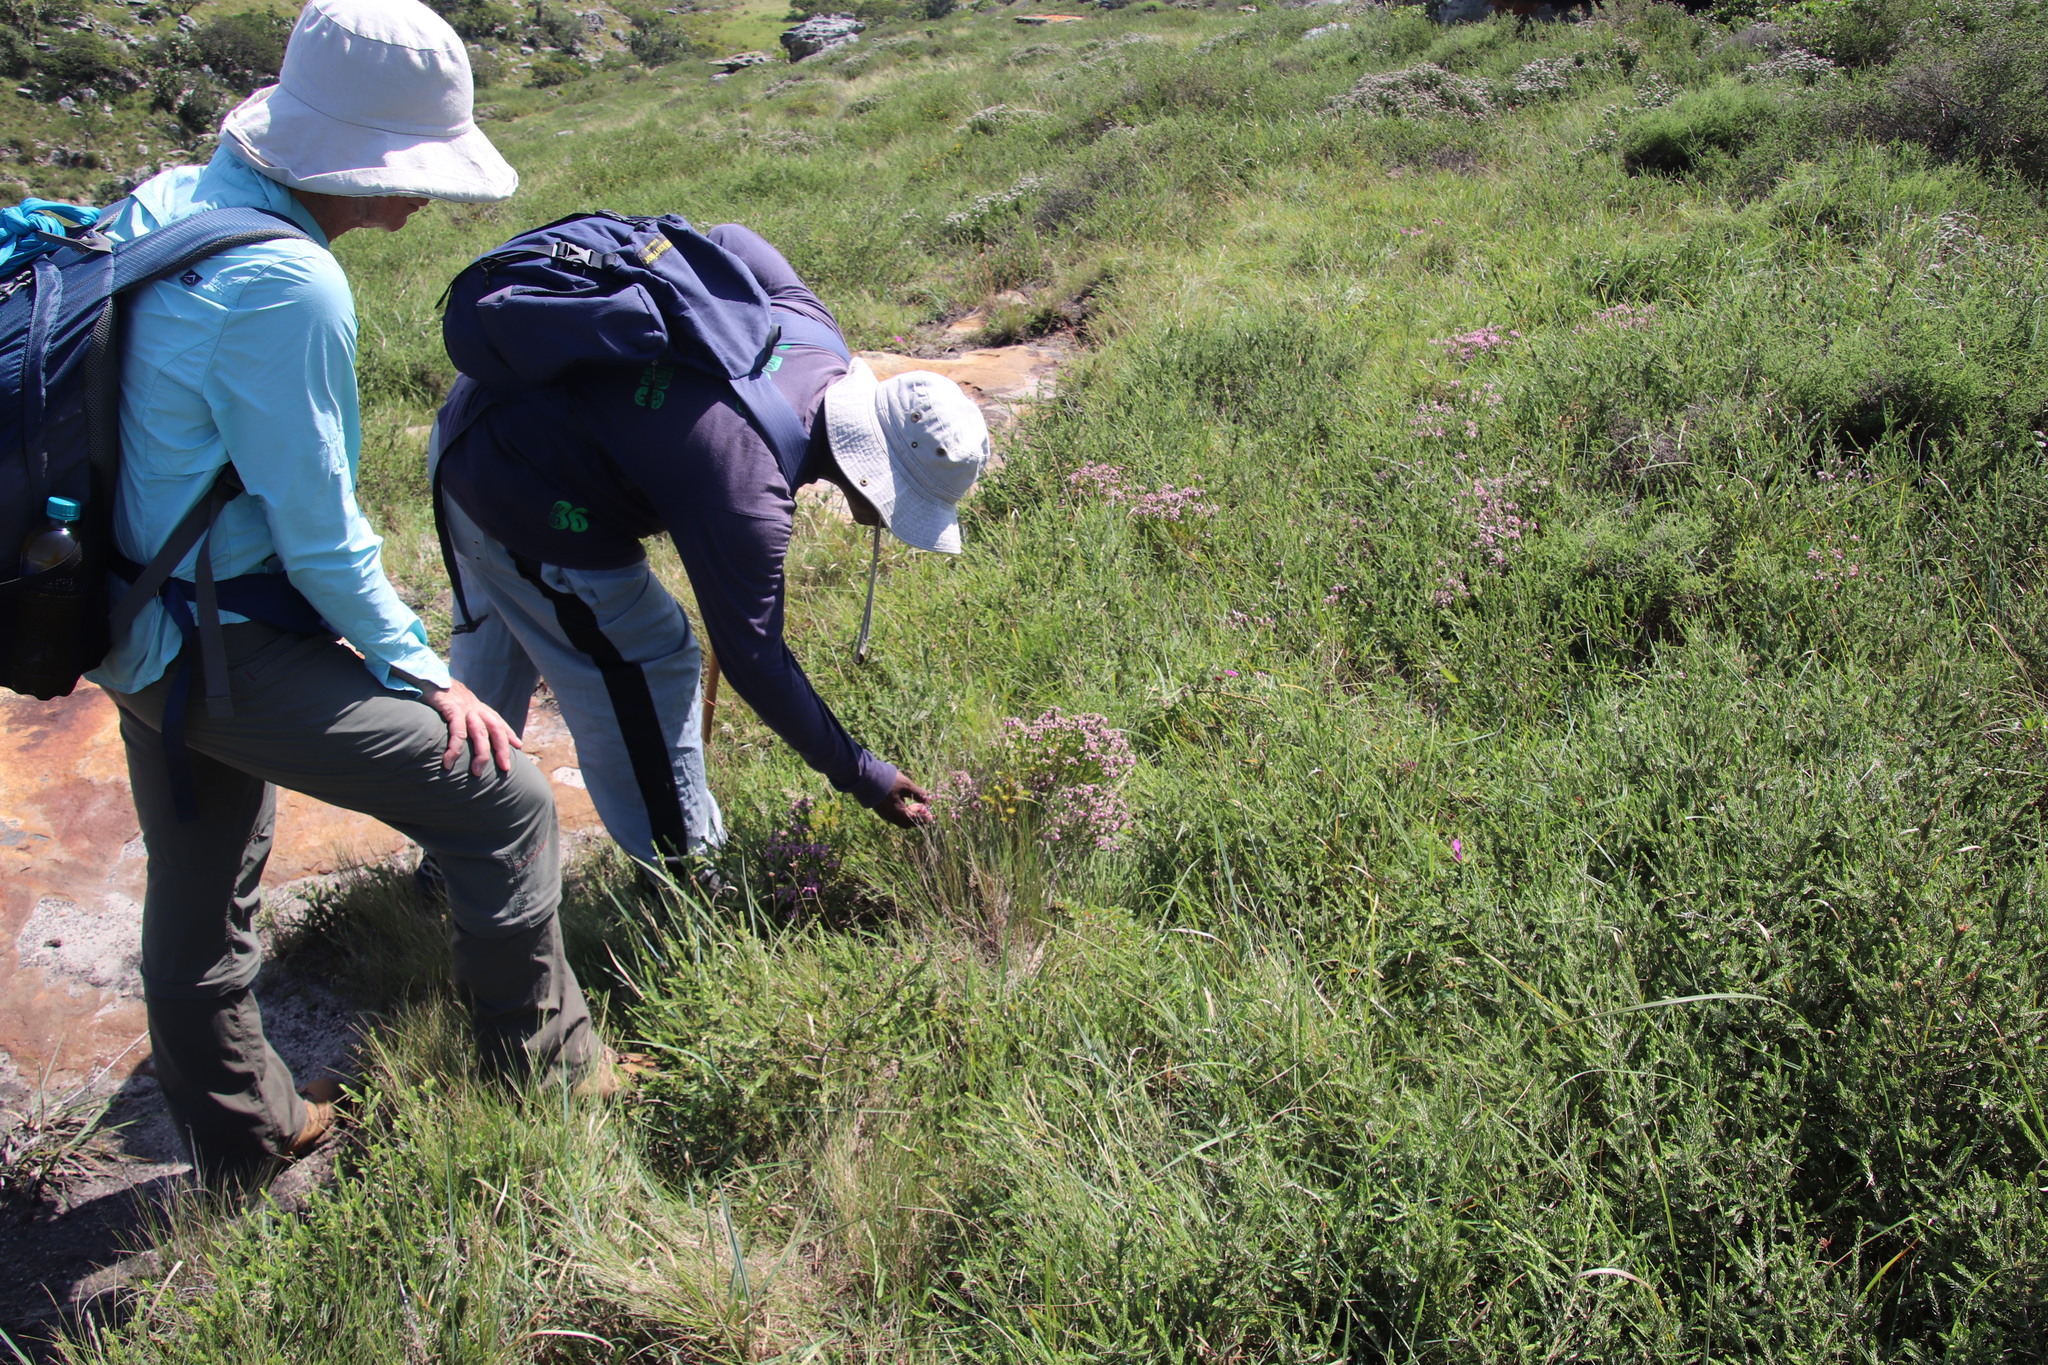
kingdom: Plantae
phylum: Tracheophyta
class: Magnoliopsida
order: Ericales
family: Ericaceae
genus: Erica
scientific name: Erica cubica
